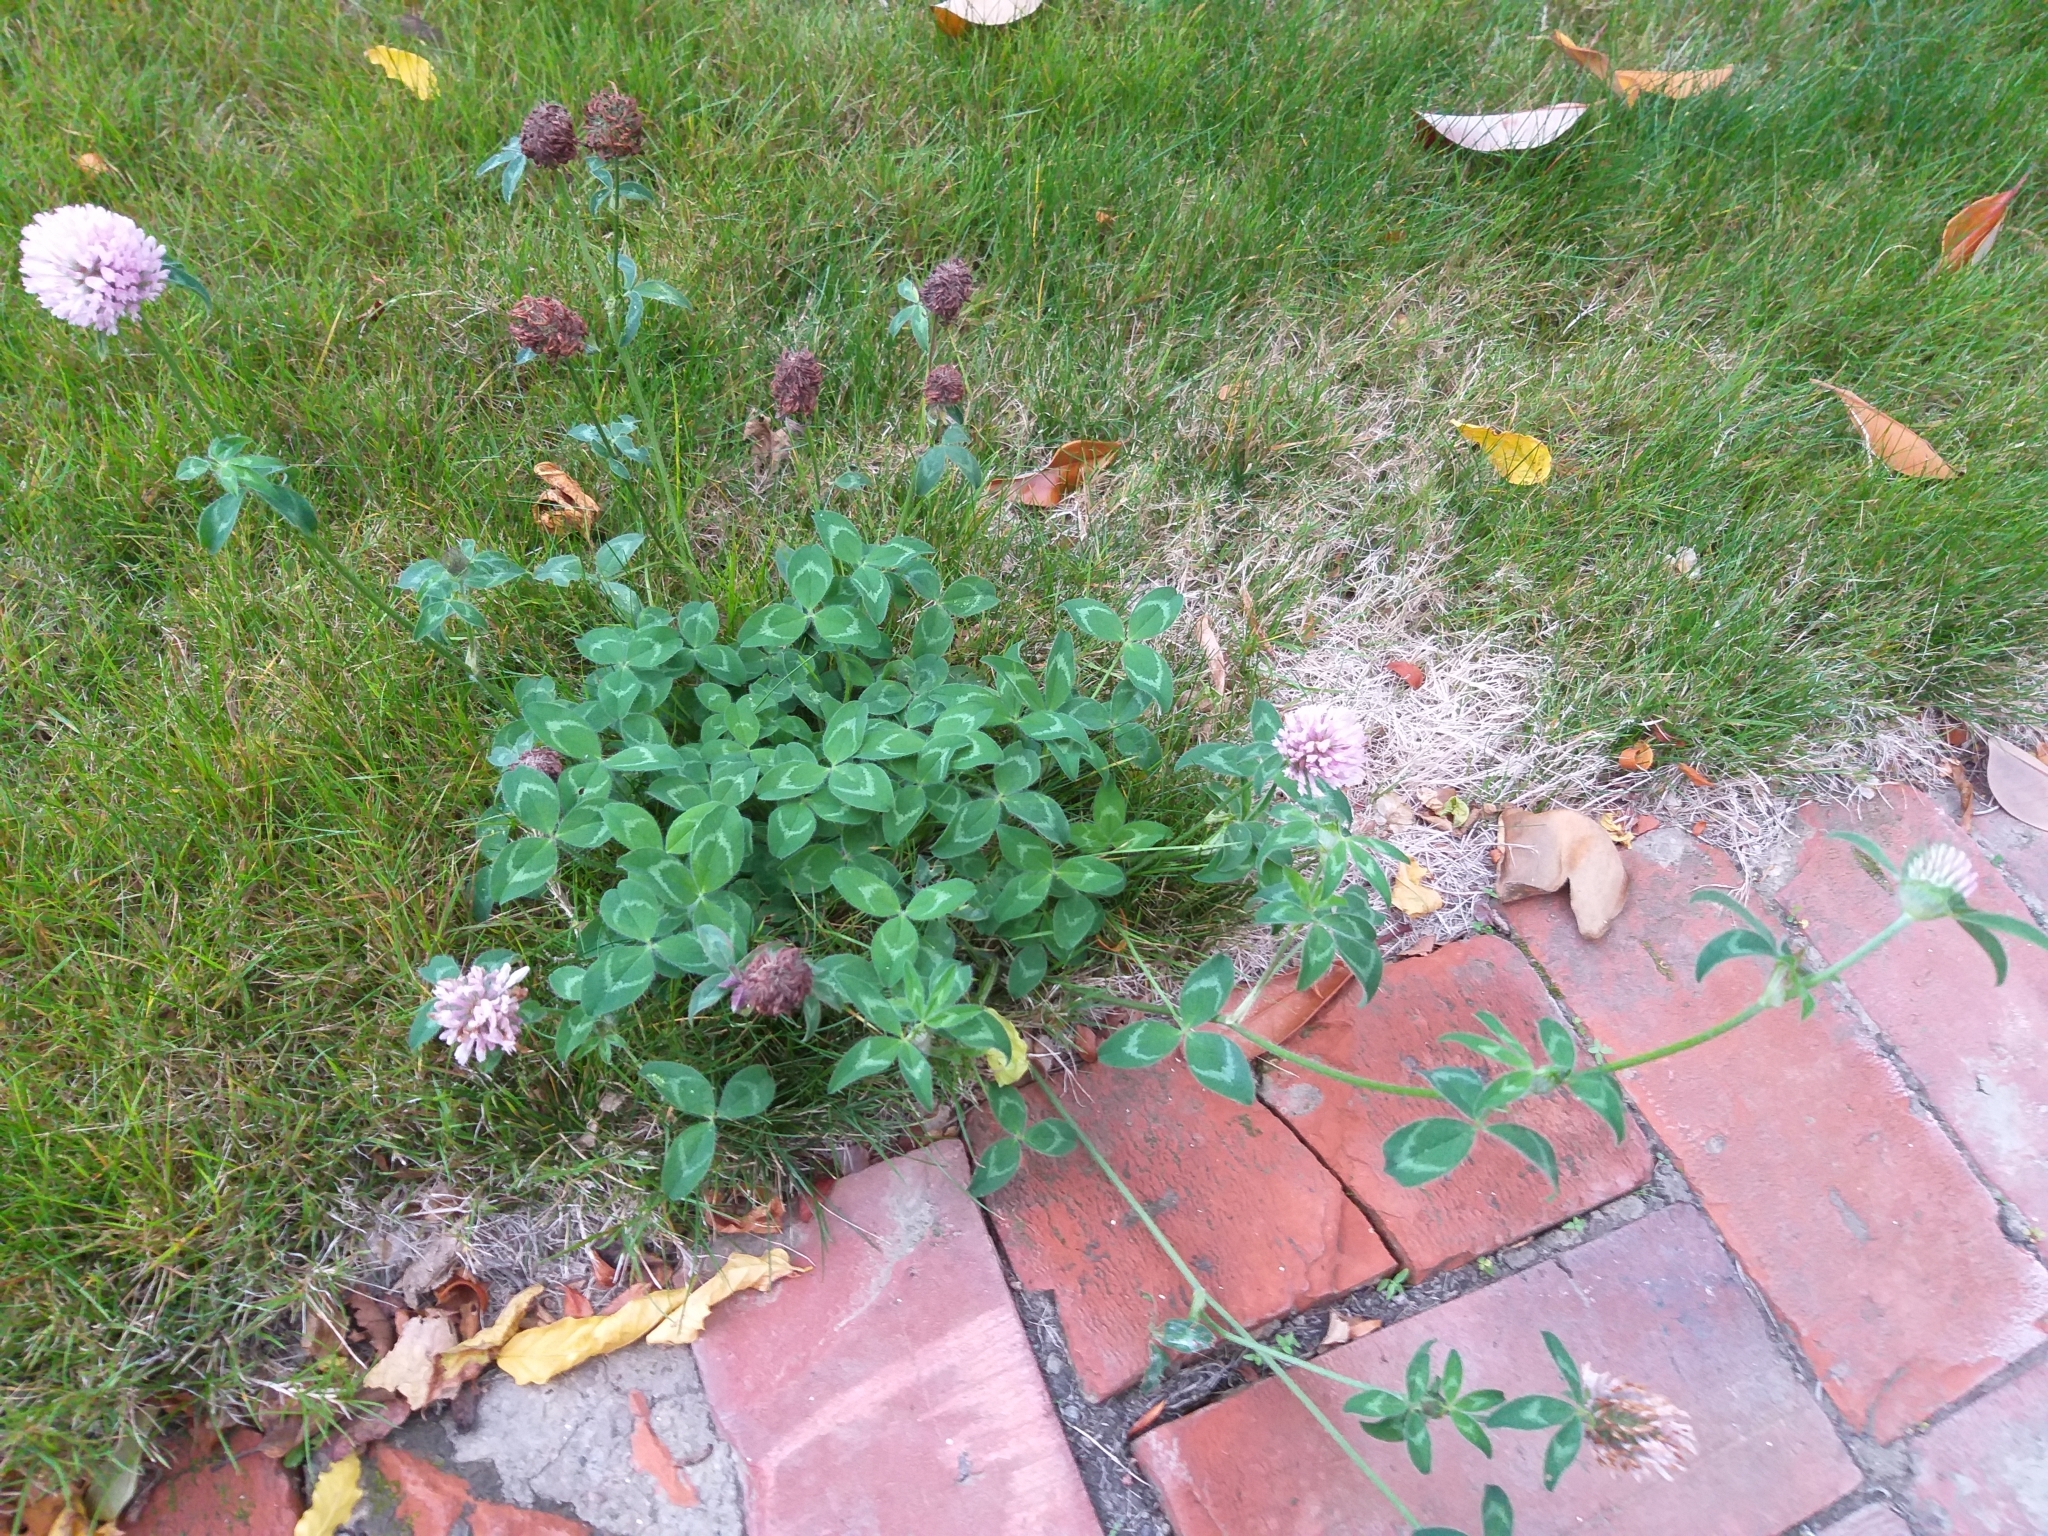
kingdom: Plantae
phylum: Tracheophyta
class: Magnoliopsida
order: Fabales
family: Fabaceae
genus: Trifolium
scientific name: Trifolium pratense
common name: Red clover
